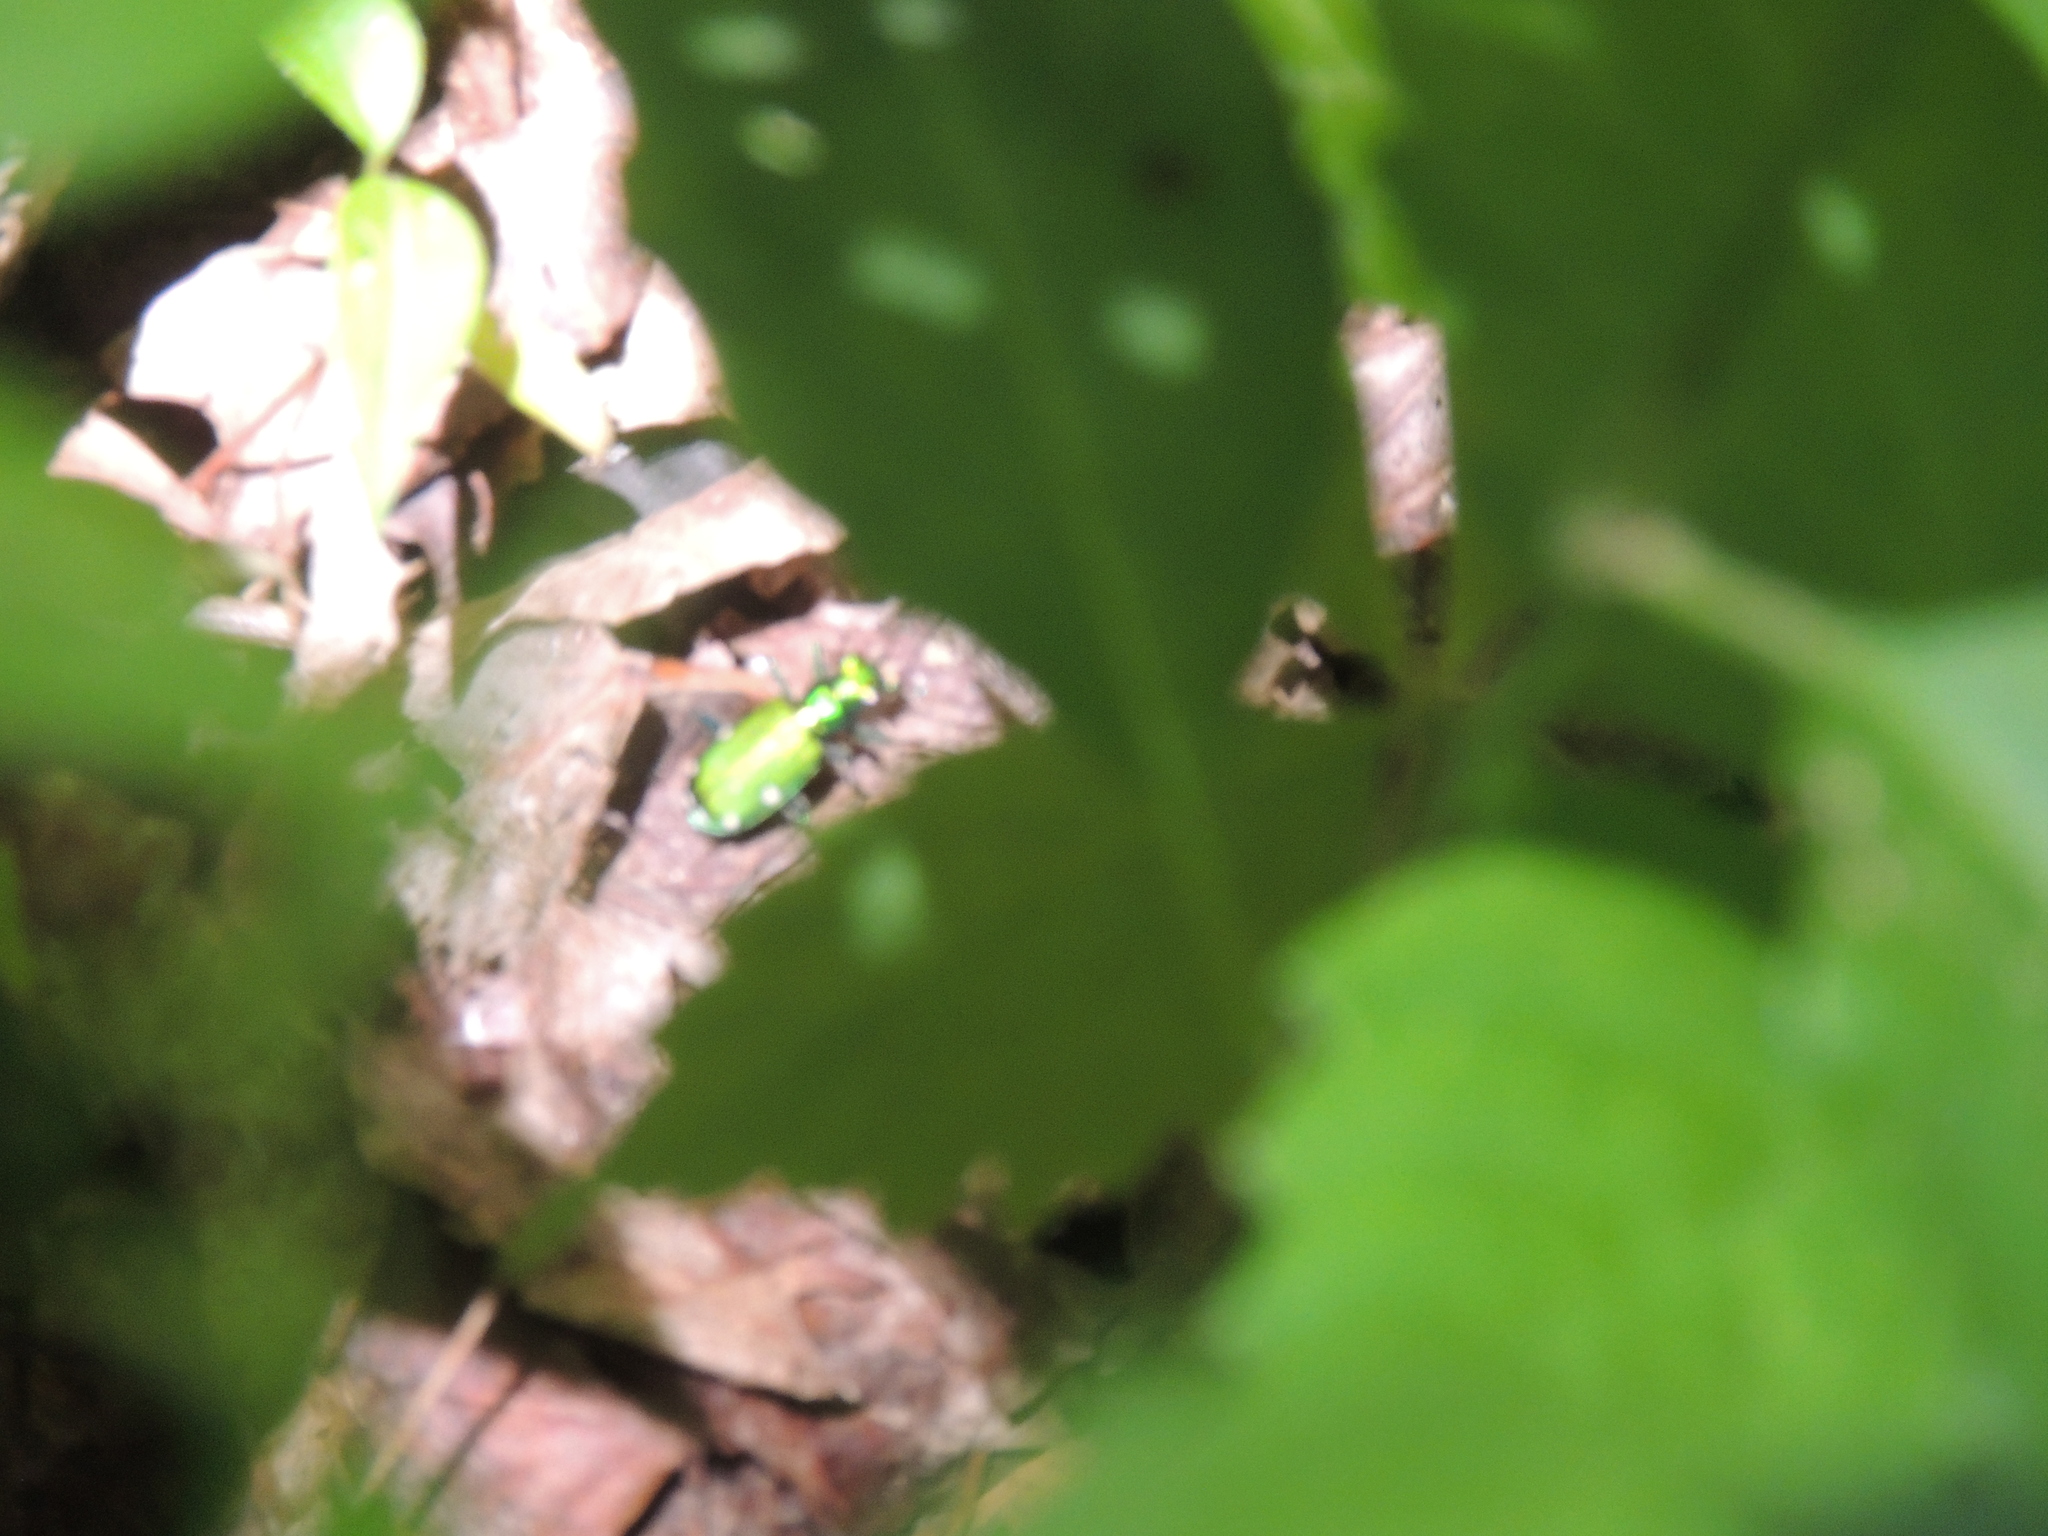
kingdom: Animalia
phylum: Arthropoda
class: Insecta
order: Coleoptera
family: Carabidae
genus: Cicindela
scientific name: Cicindela sexguttata
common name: Six-spotted tiger beetle
